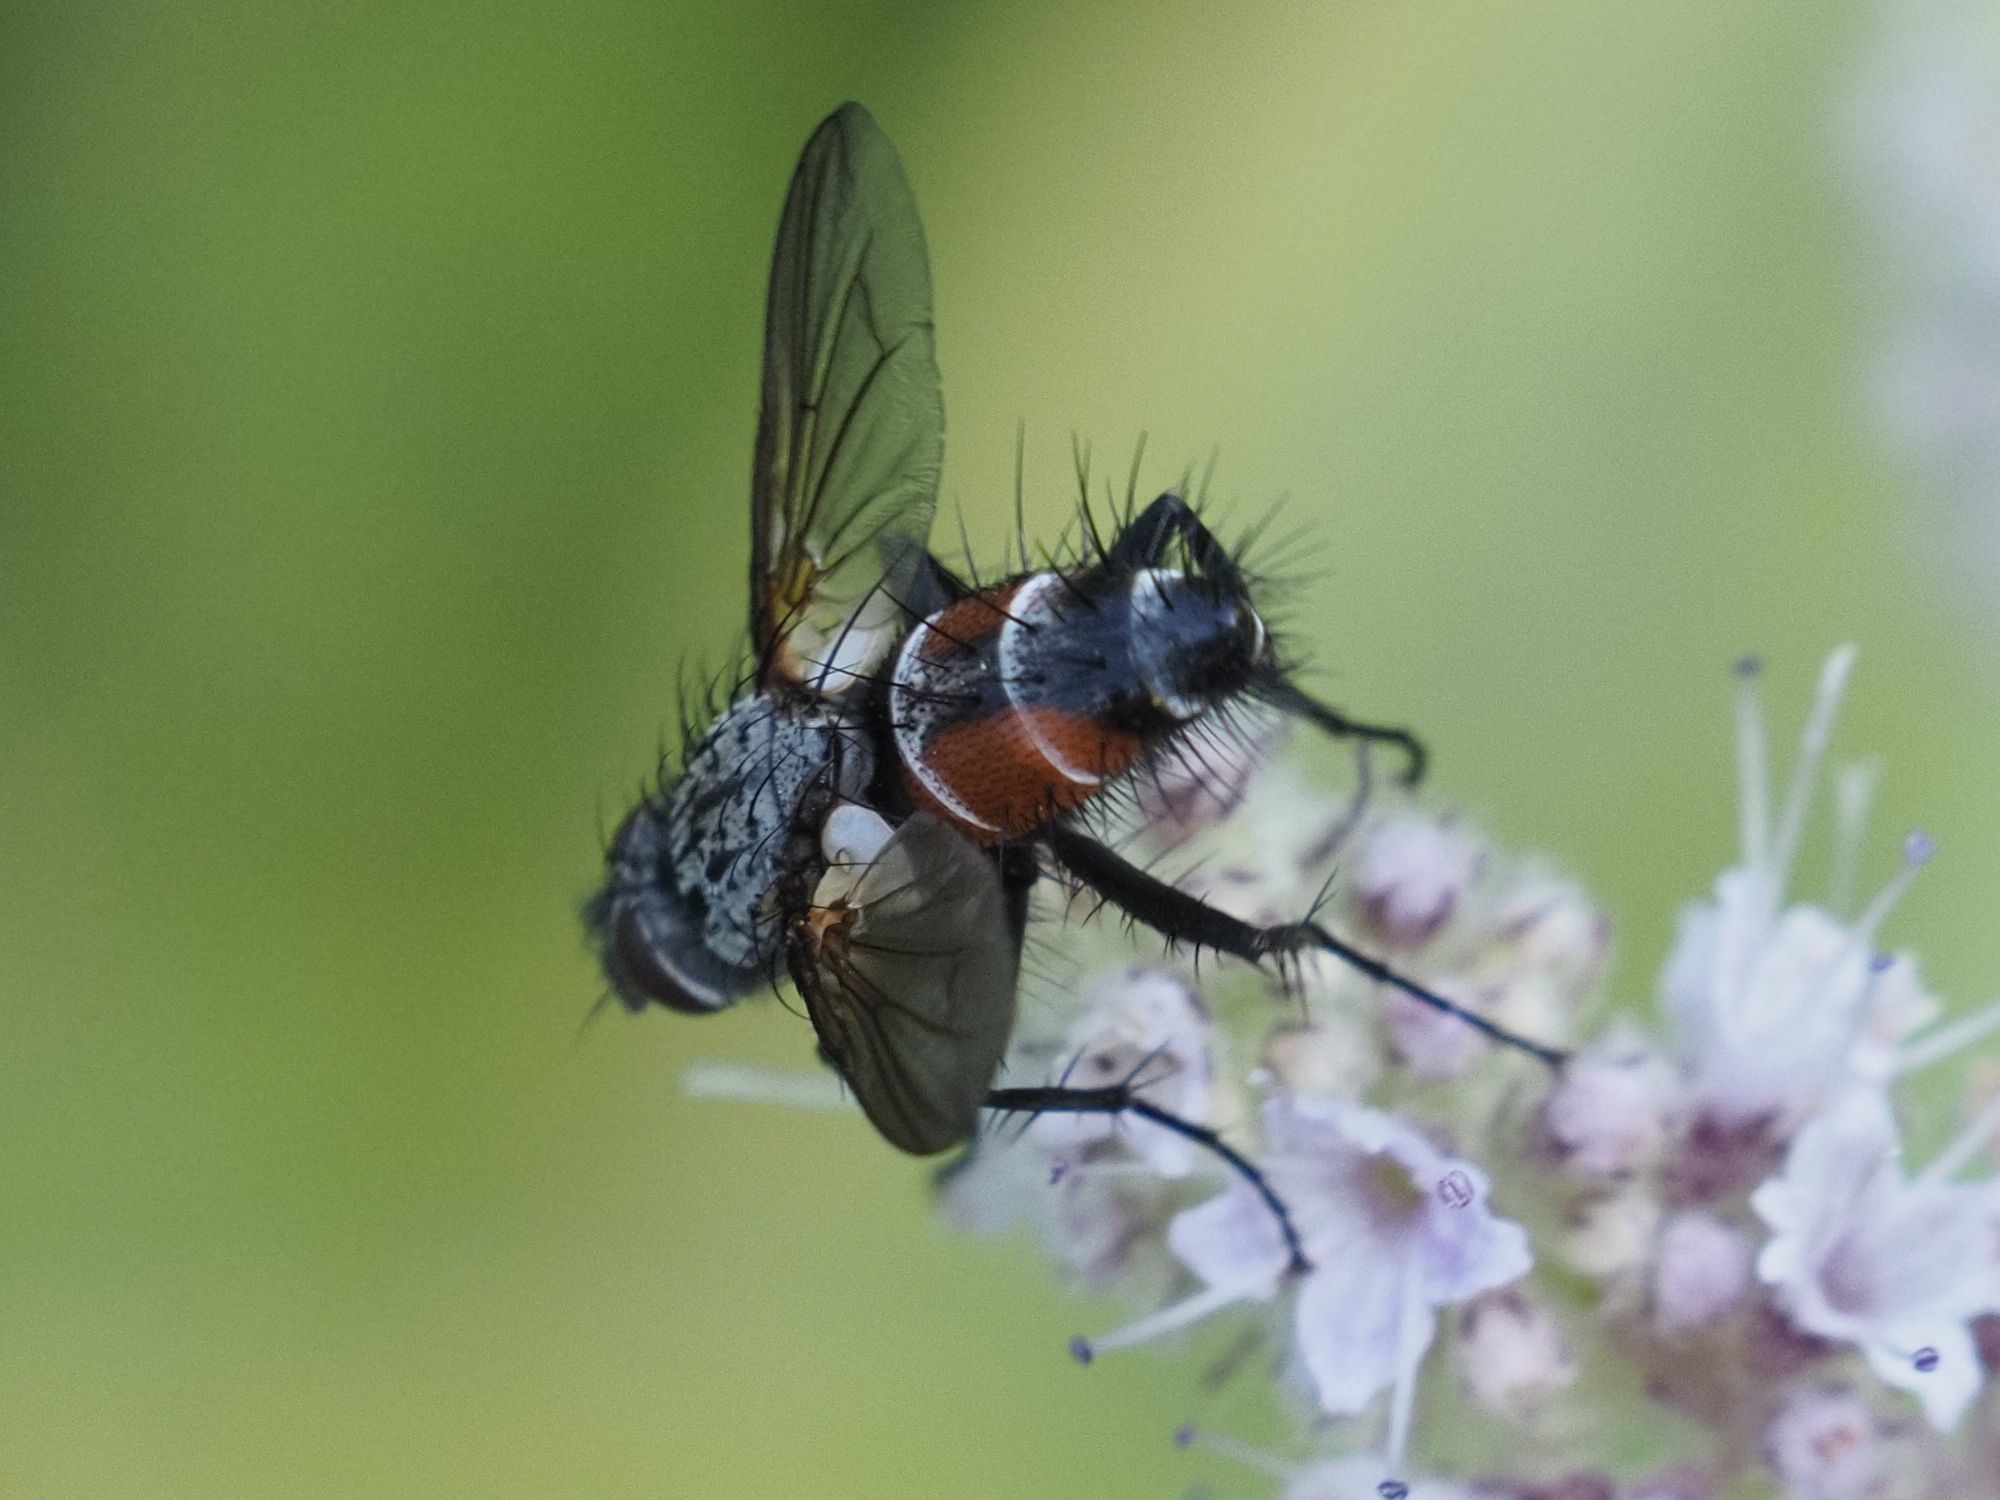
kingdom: Animalia
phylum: Arthropoda
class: Insecta
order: Diptera
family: Tachinidae
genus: Eriothrix
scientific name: Eriothrix rufomaculatus
